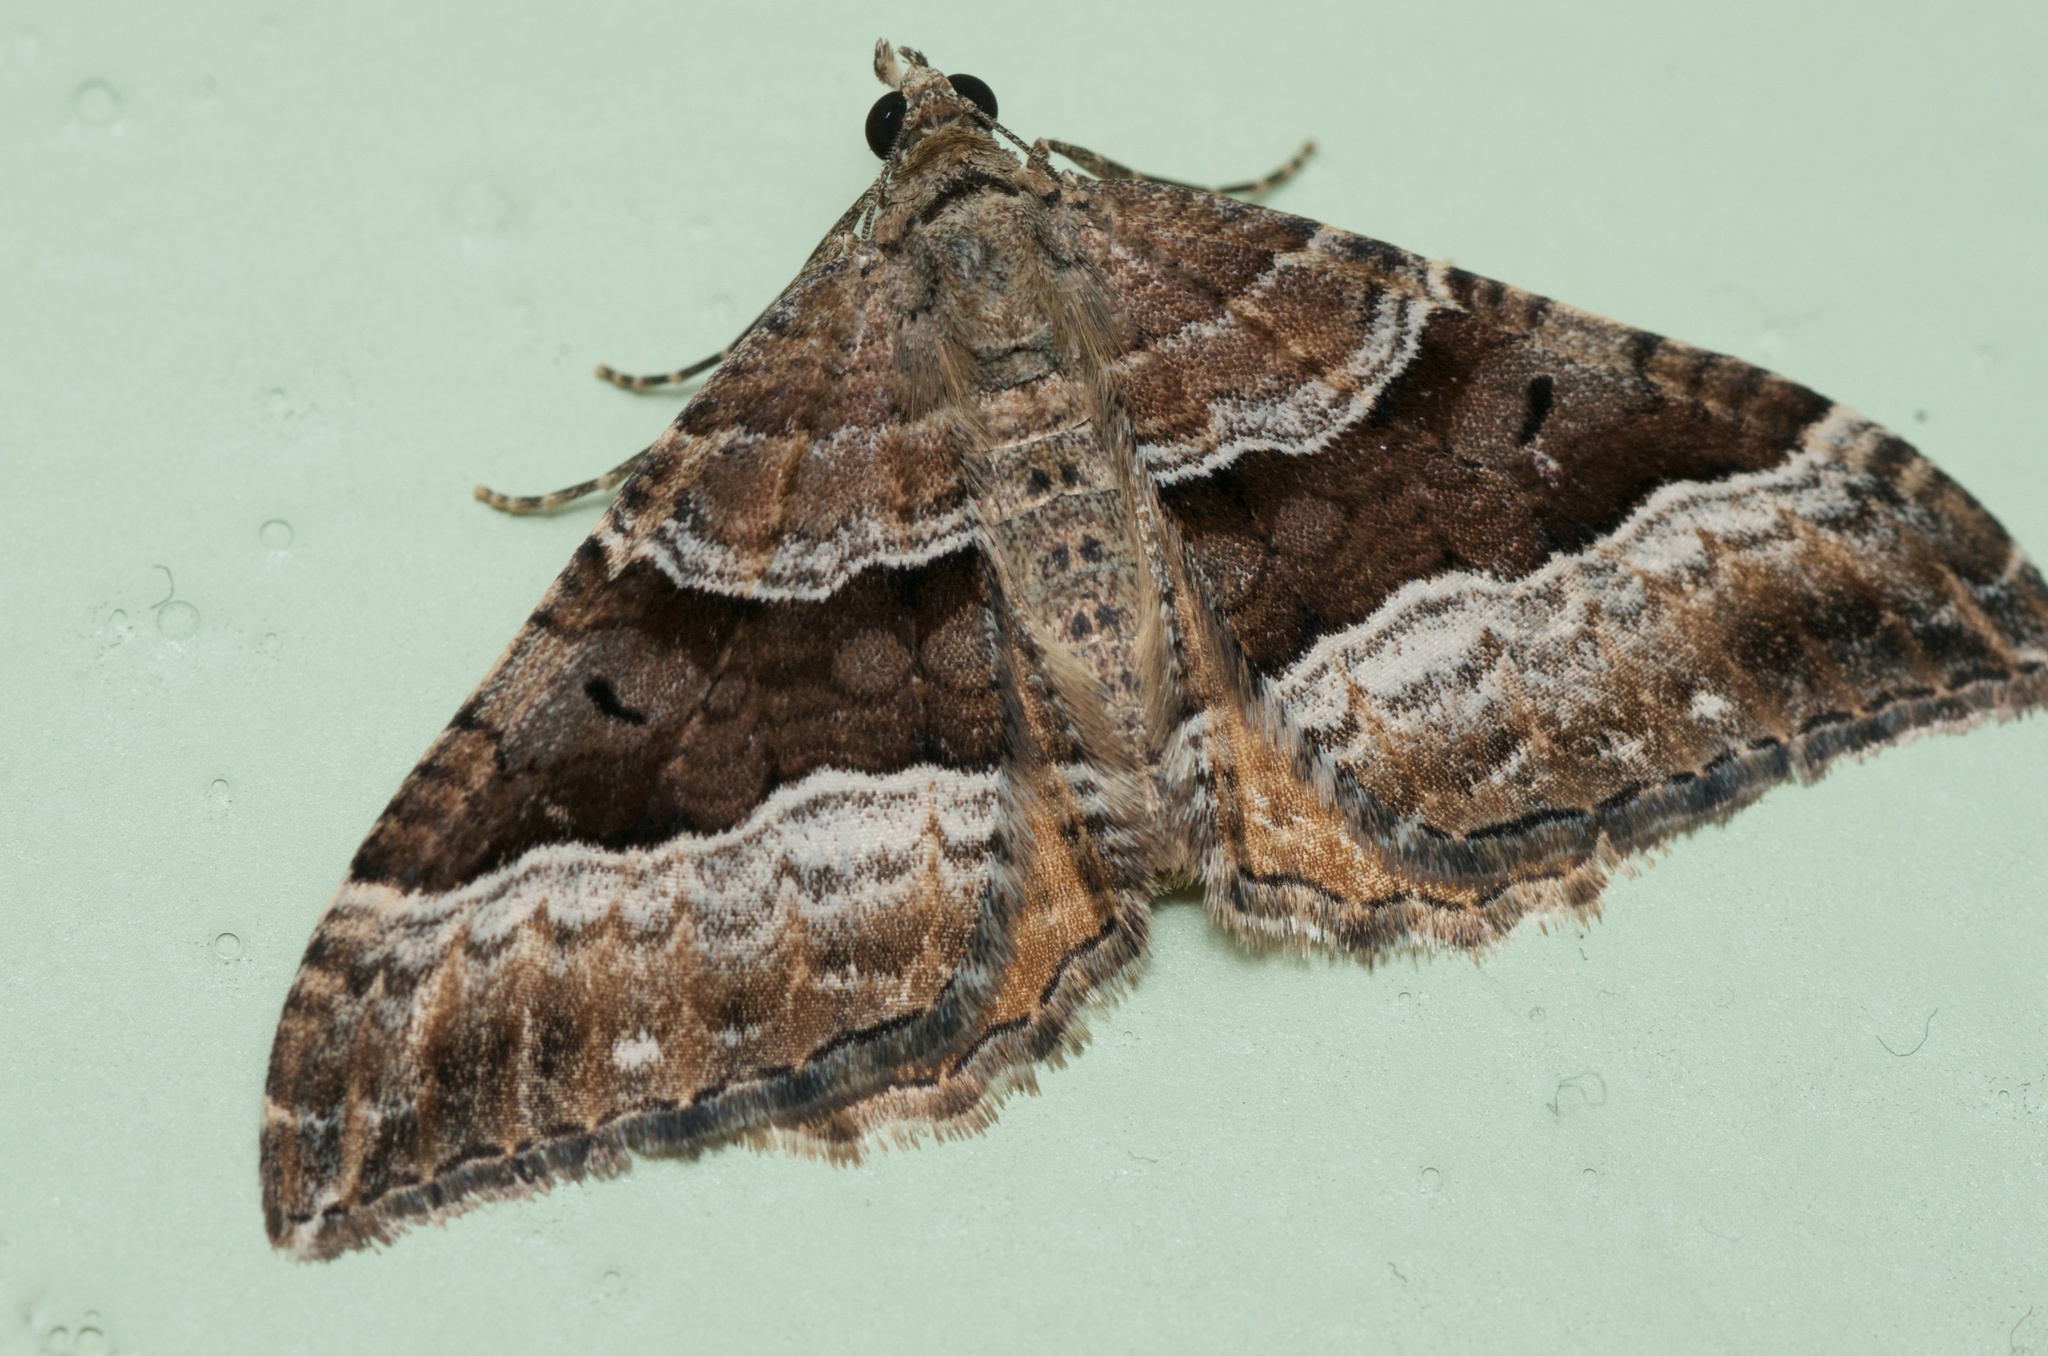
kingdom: Animalia
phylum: Arthropoda
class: Insecta
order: Lepidoptera
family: Geometridae
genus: Hydriomena
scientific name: Hydriomena deltoidata
